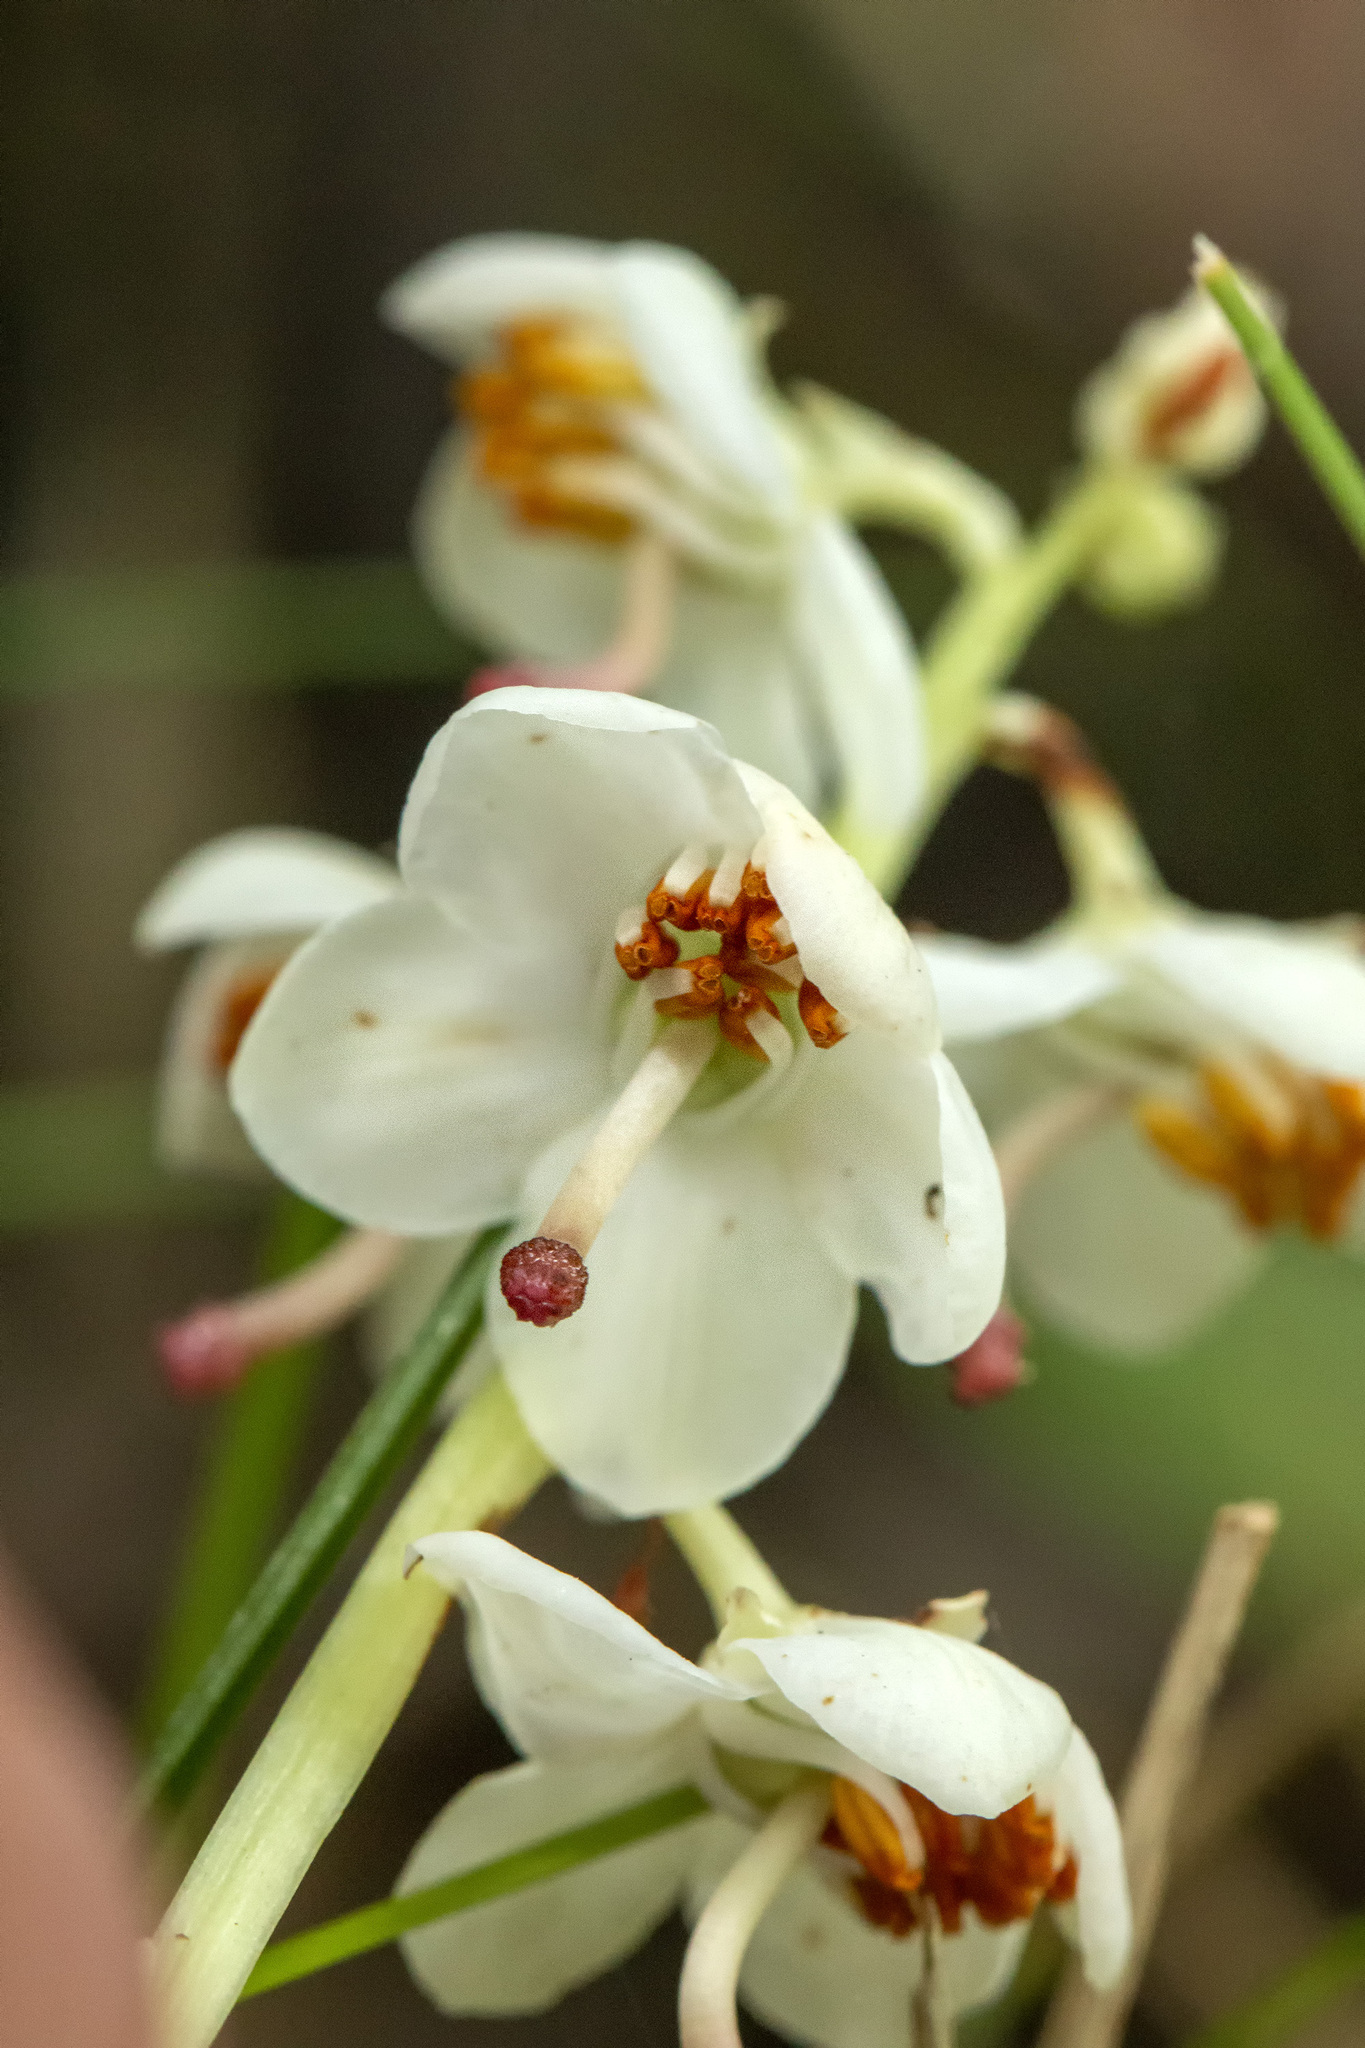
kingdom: Plantae
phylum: Tracheophyta
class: Magnoliopsida
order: Ericales
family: Ericaceae
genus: Pyrola
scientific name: Pyrola rotundifolia
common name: Round-leaved wintergreen
